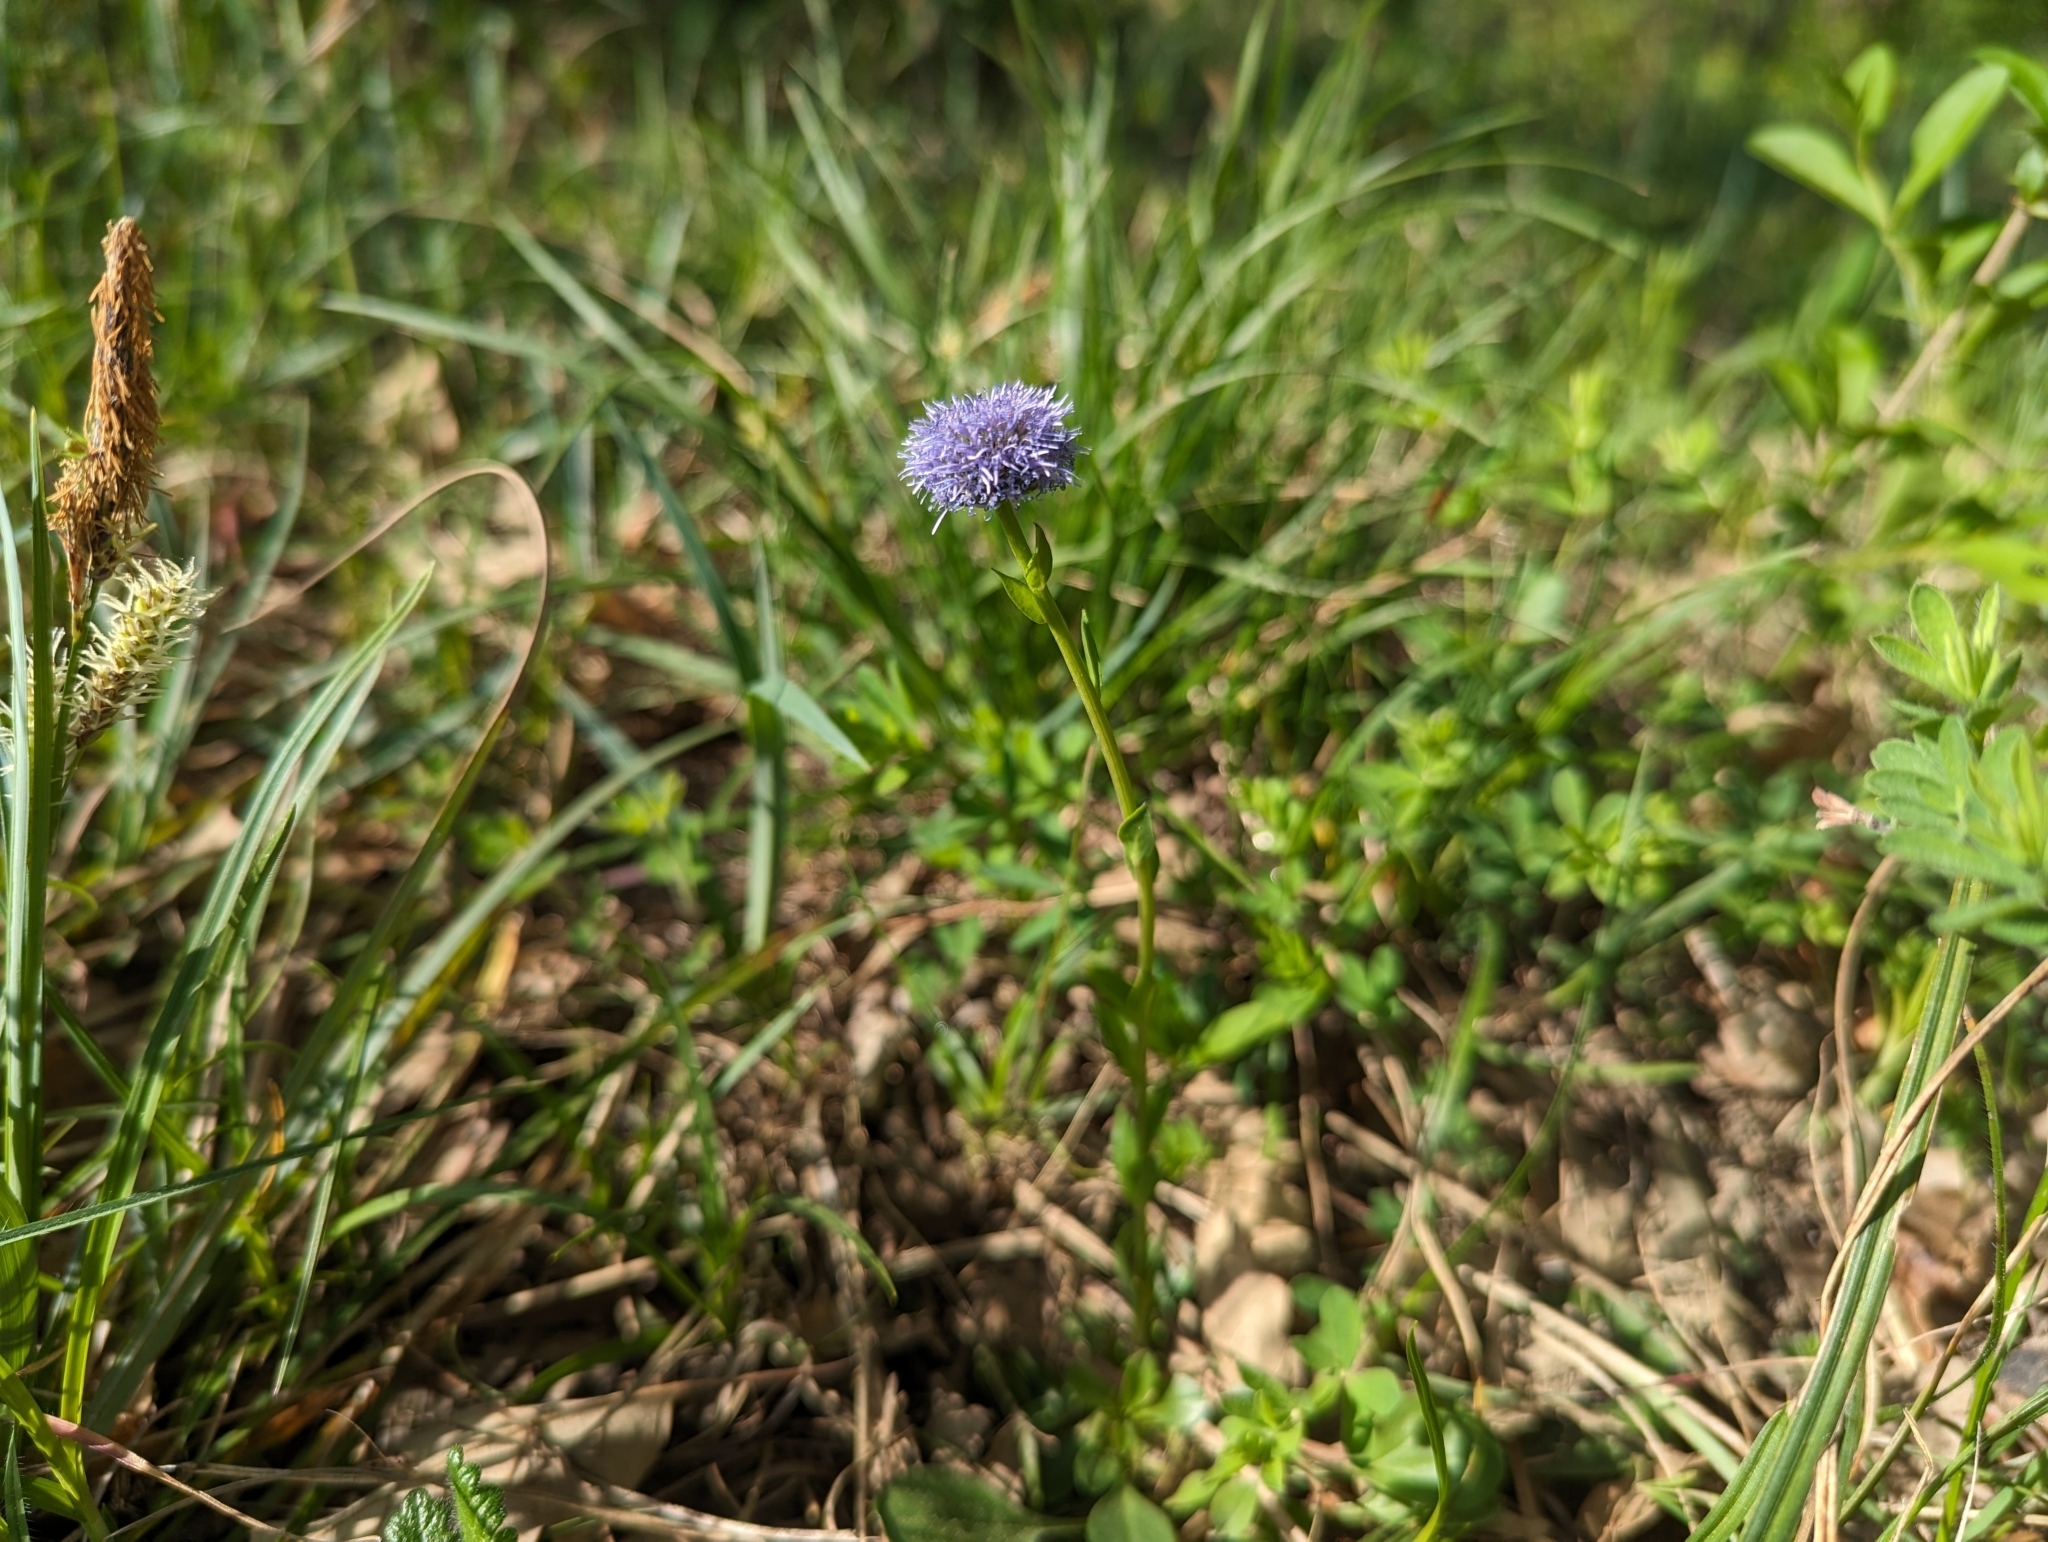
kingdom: Plantae
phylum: Tracheophyta
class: Magnoliopsida
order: Lamiales
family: Plantaginaceae
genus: Globularia
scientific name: Globularia bisnagarica
